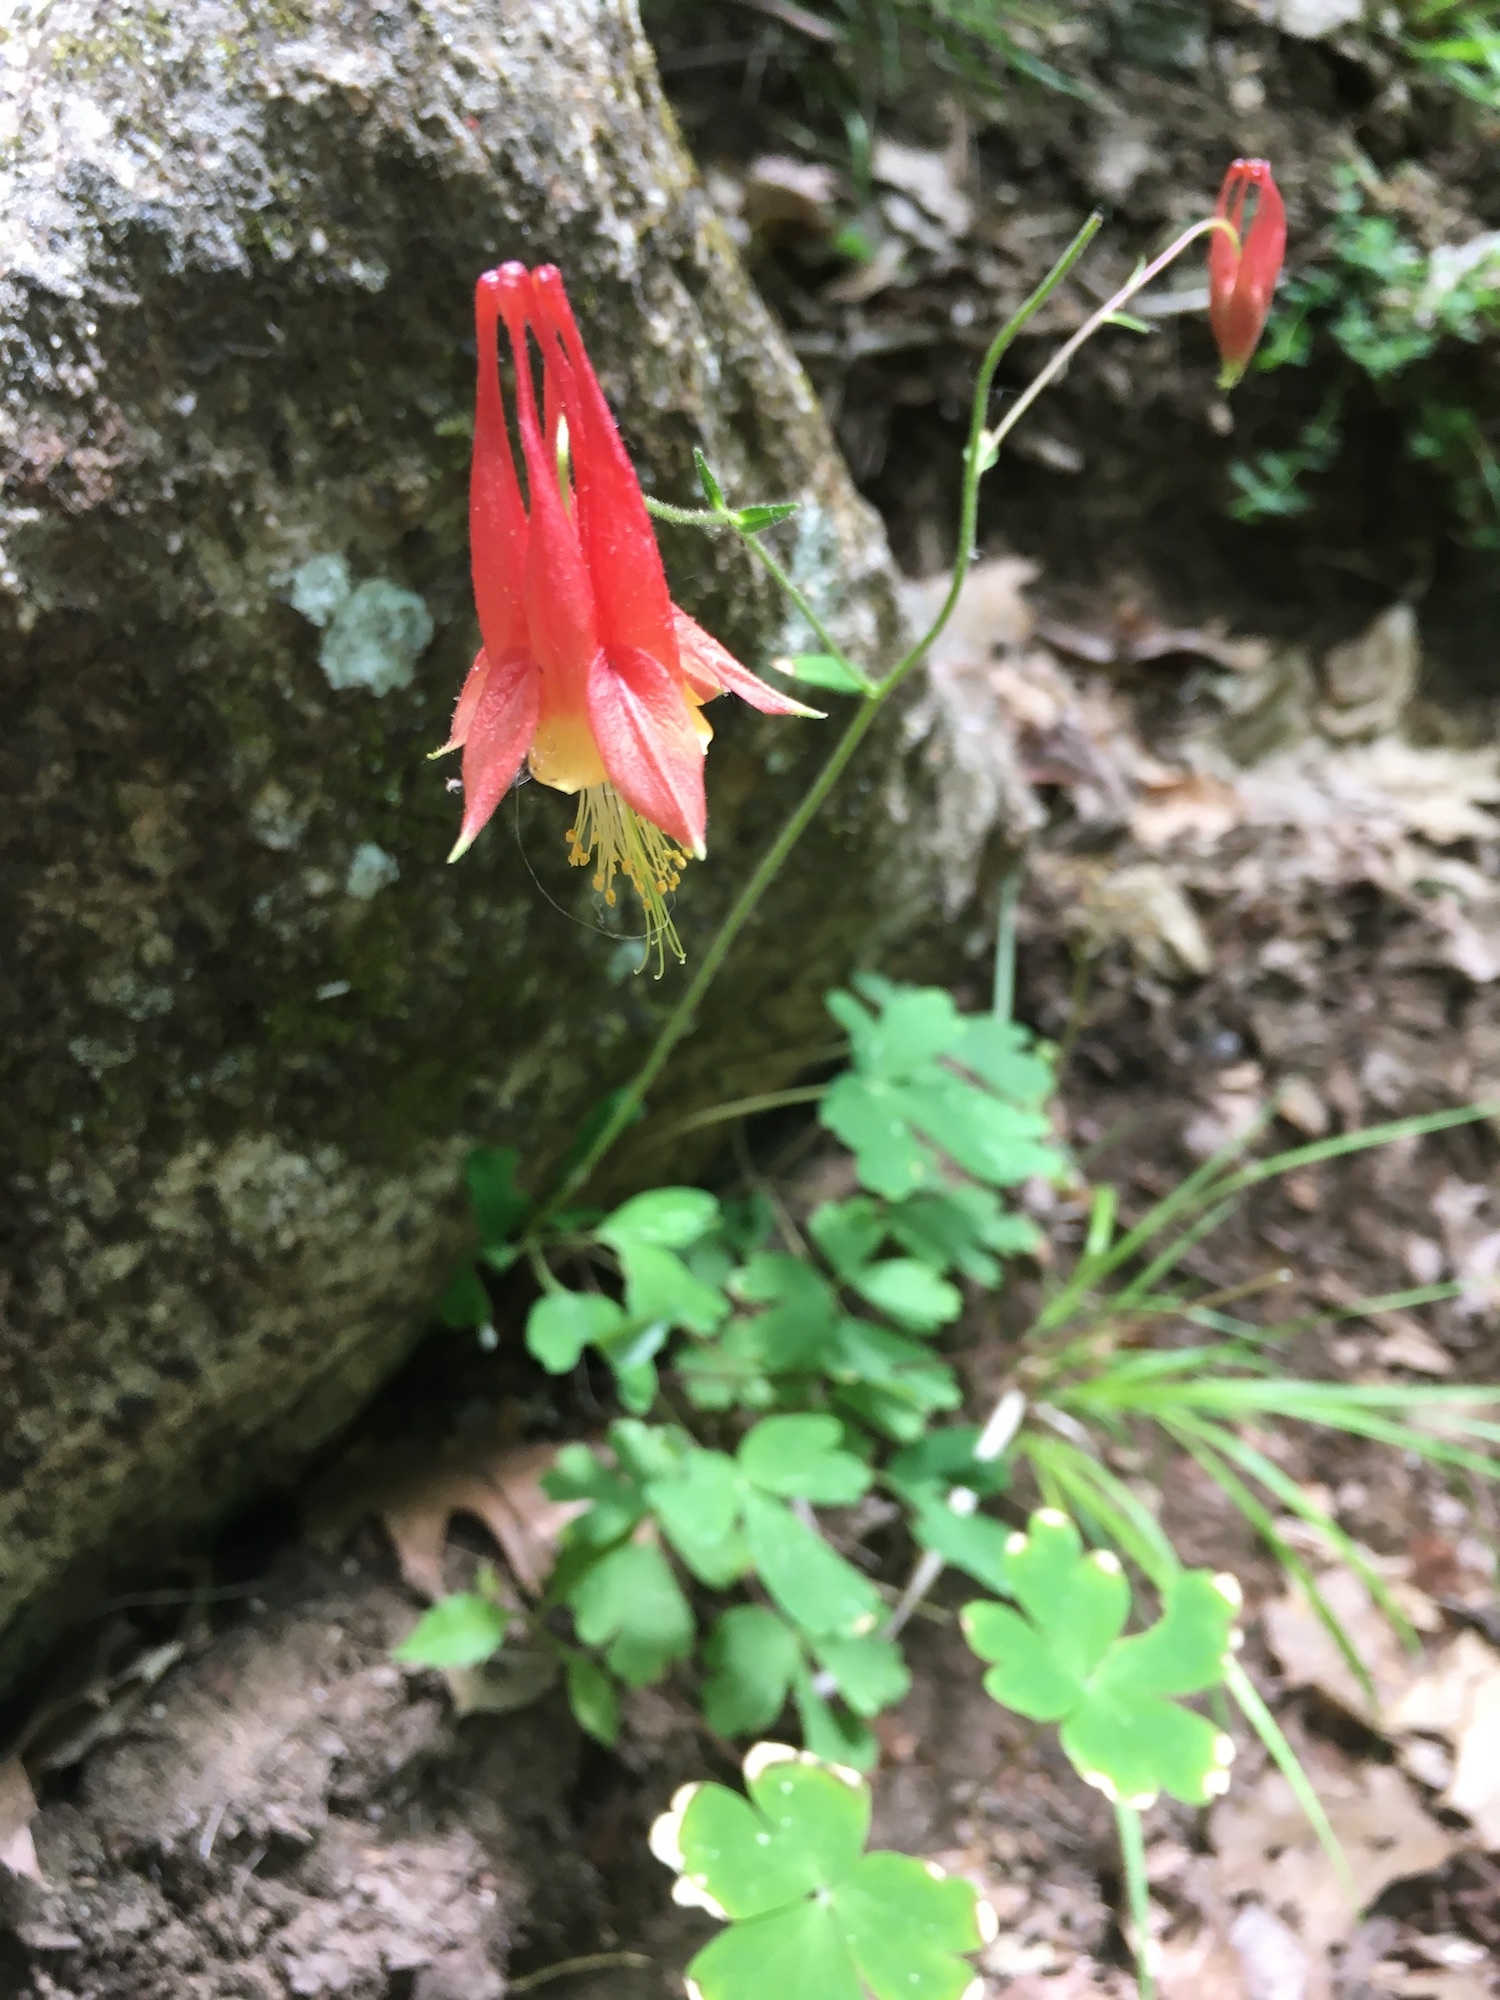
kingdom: Plantae
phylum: Tracheophyta
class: Magnoliopsida
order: Ranunculales
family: Ranunculaceae
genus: Aquilegia
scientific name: Aquilegia canadensis
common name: American columbine
